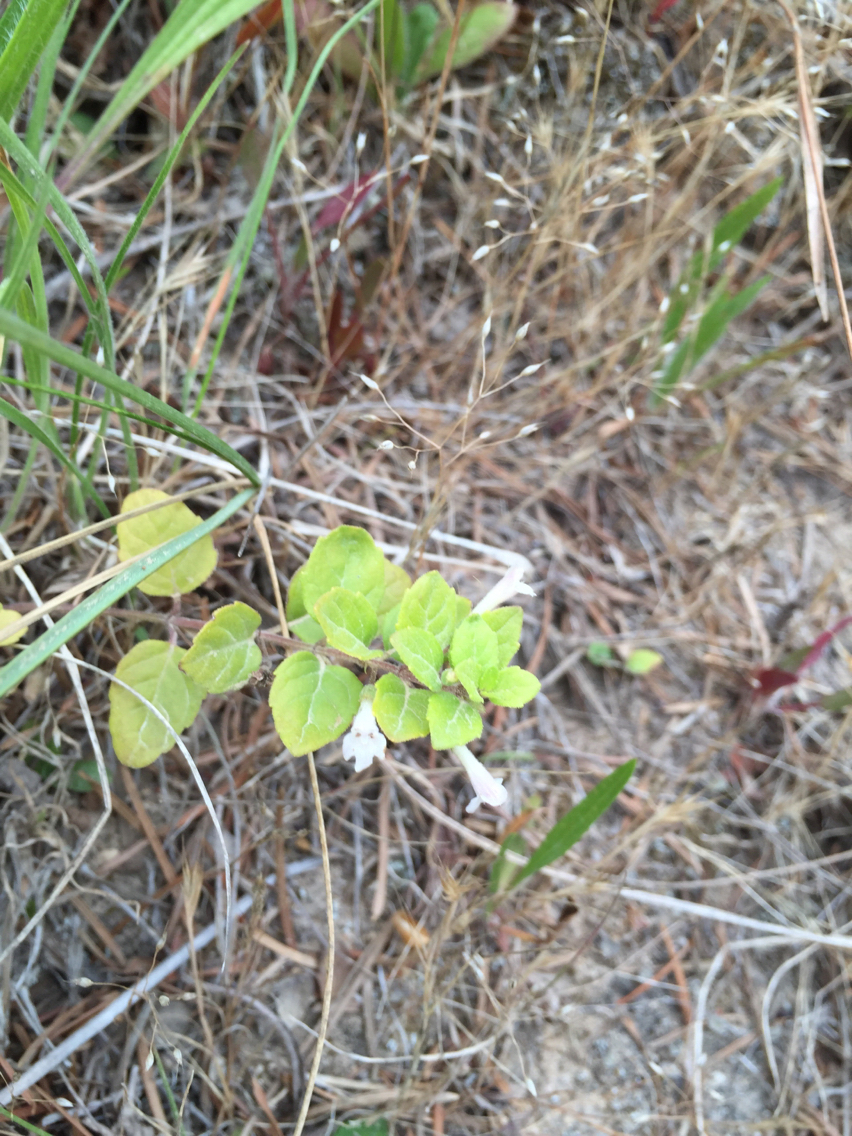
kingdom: Plantae
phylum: Tracheophyta
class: Magnoliopsida
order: Lamiales
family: Lamiaceae
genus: Micromeria
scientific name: Micromeria douglasii
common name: Yerba buena
